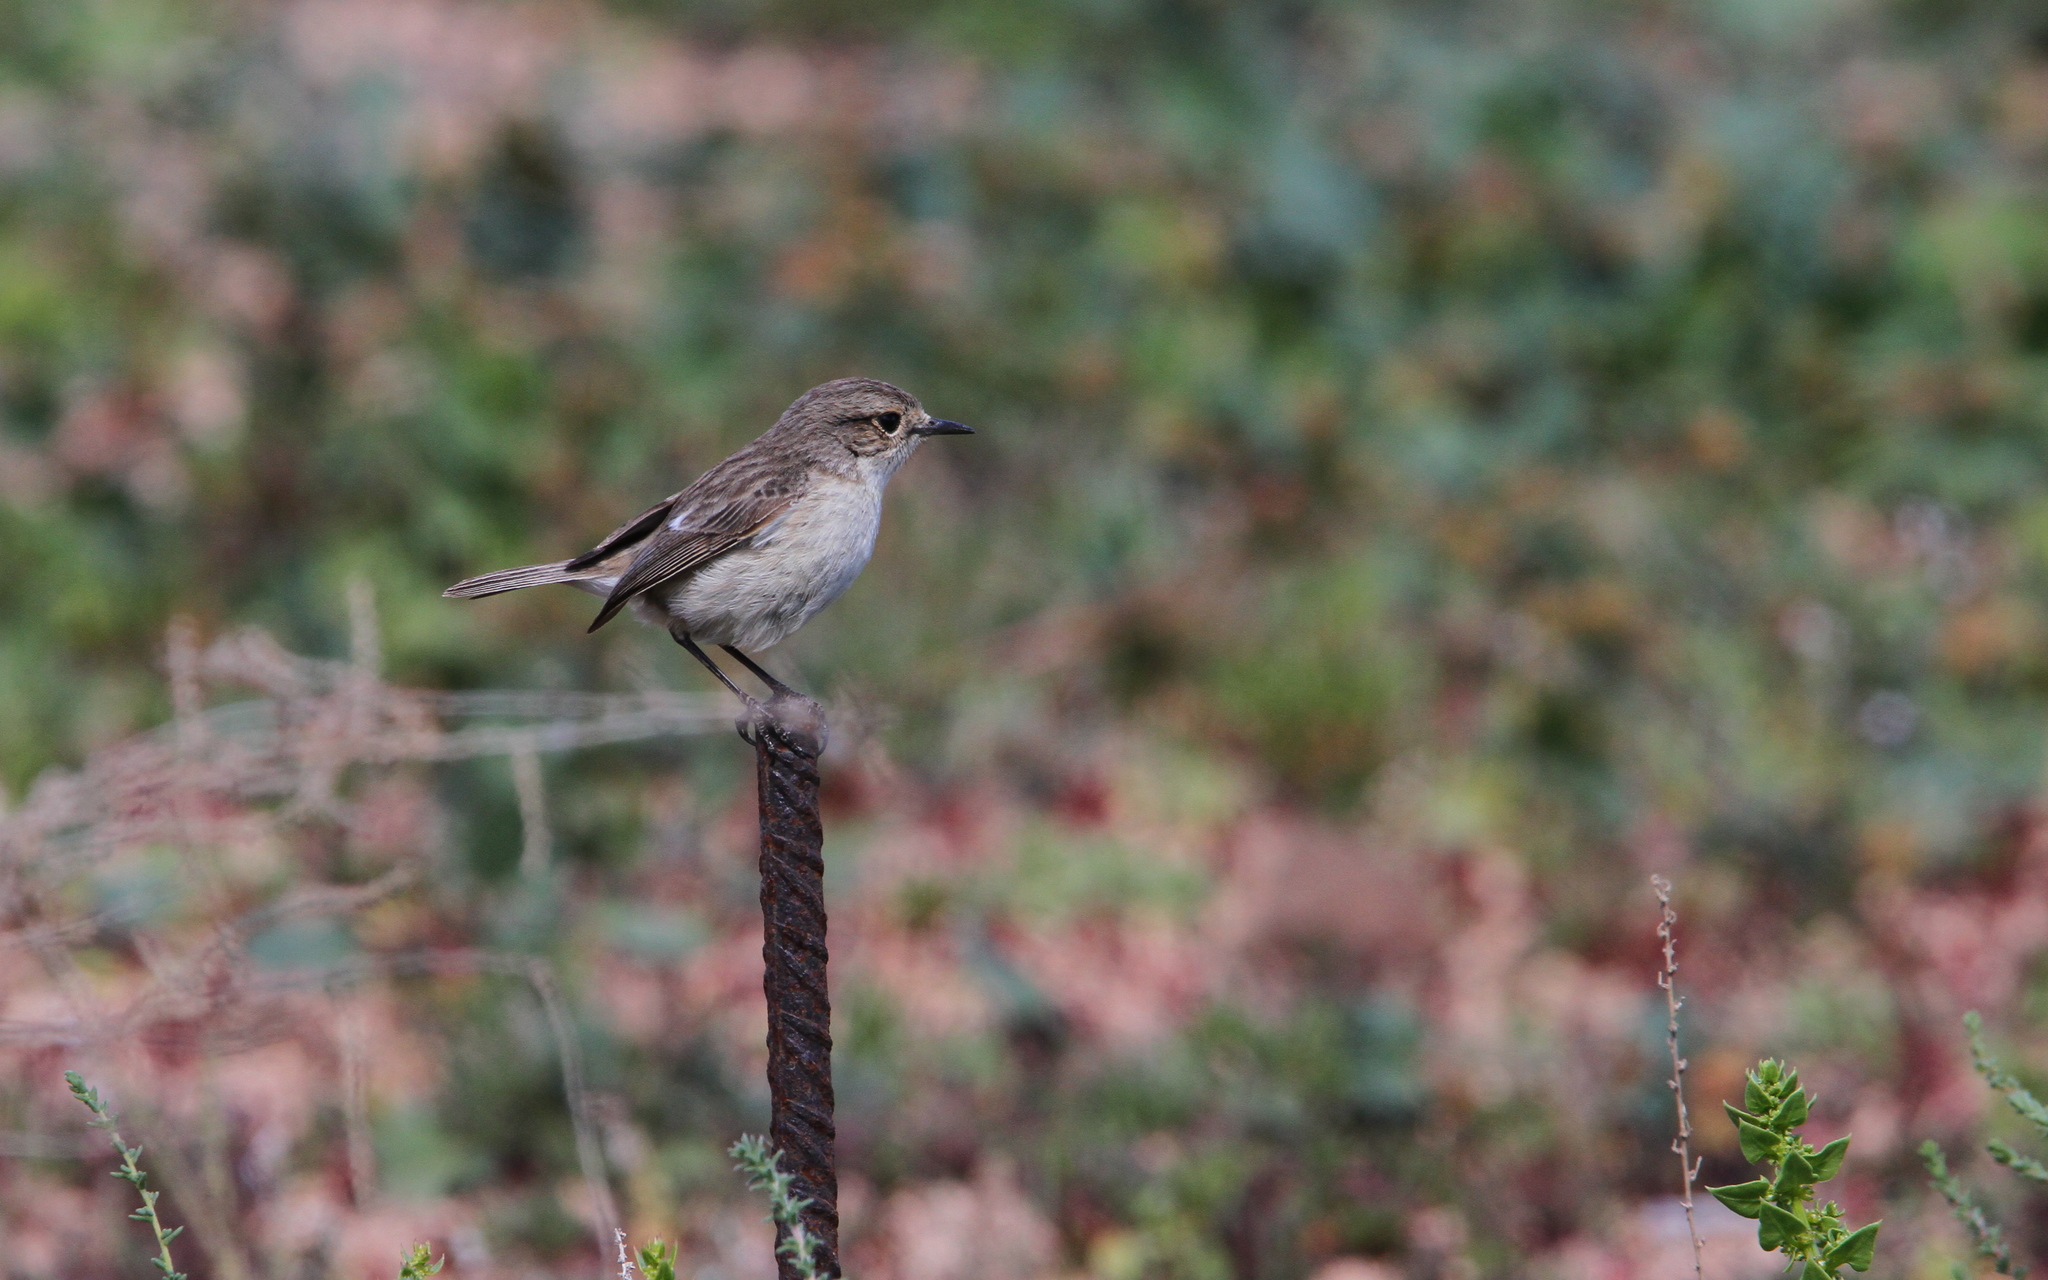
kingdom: Animalia
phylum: Chordata
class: Aves
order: Passeriformes
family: Muscicapidae
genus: Saxicola
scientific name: Saxicola dacotiae
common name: Canary islands stonechat
